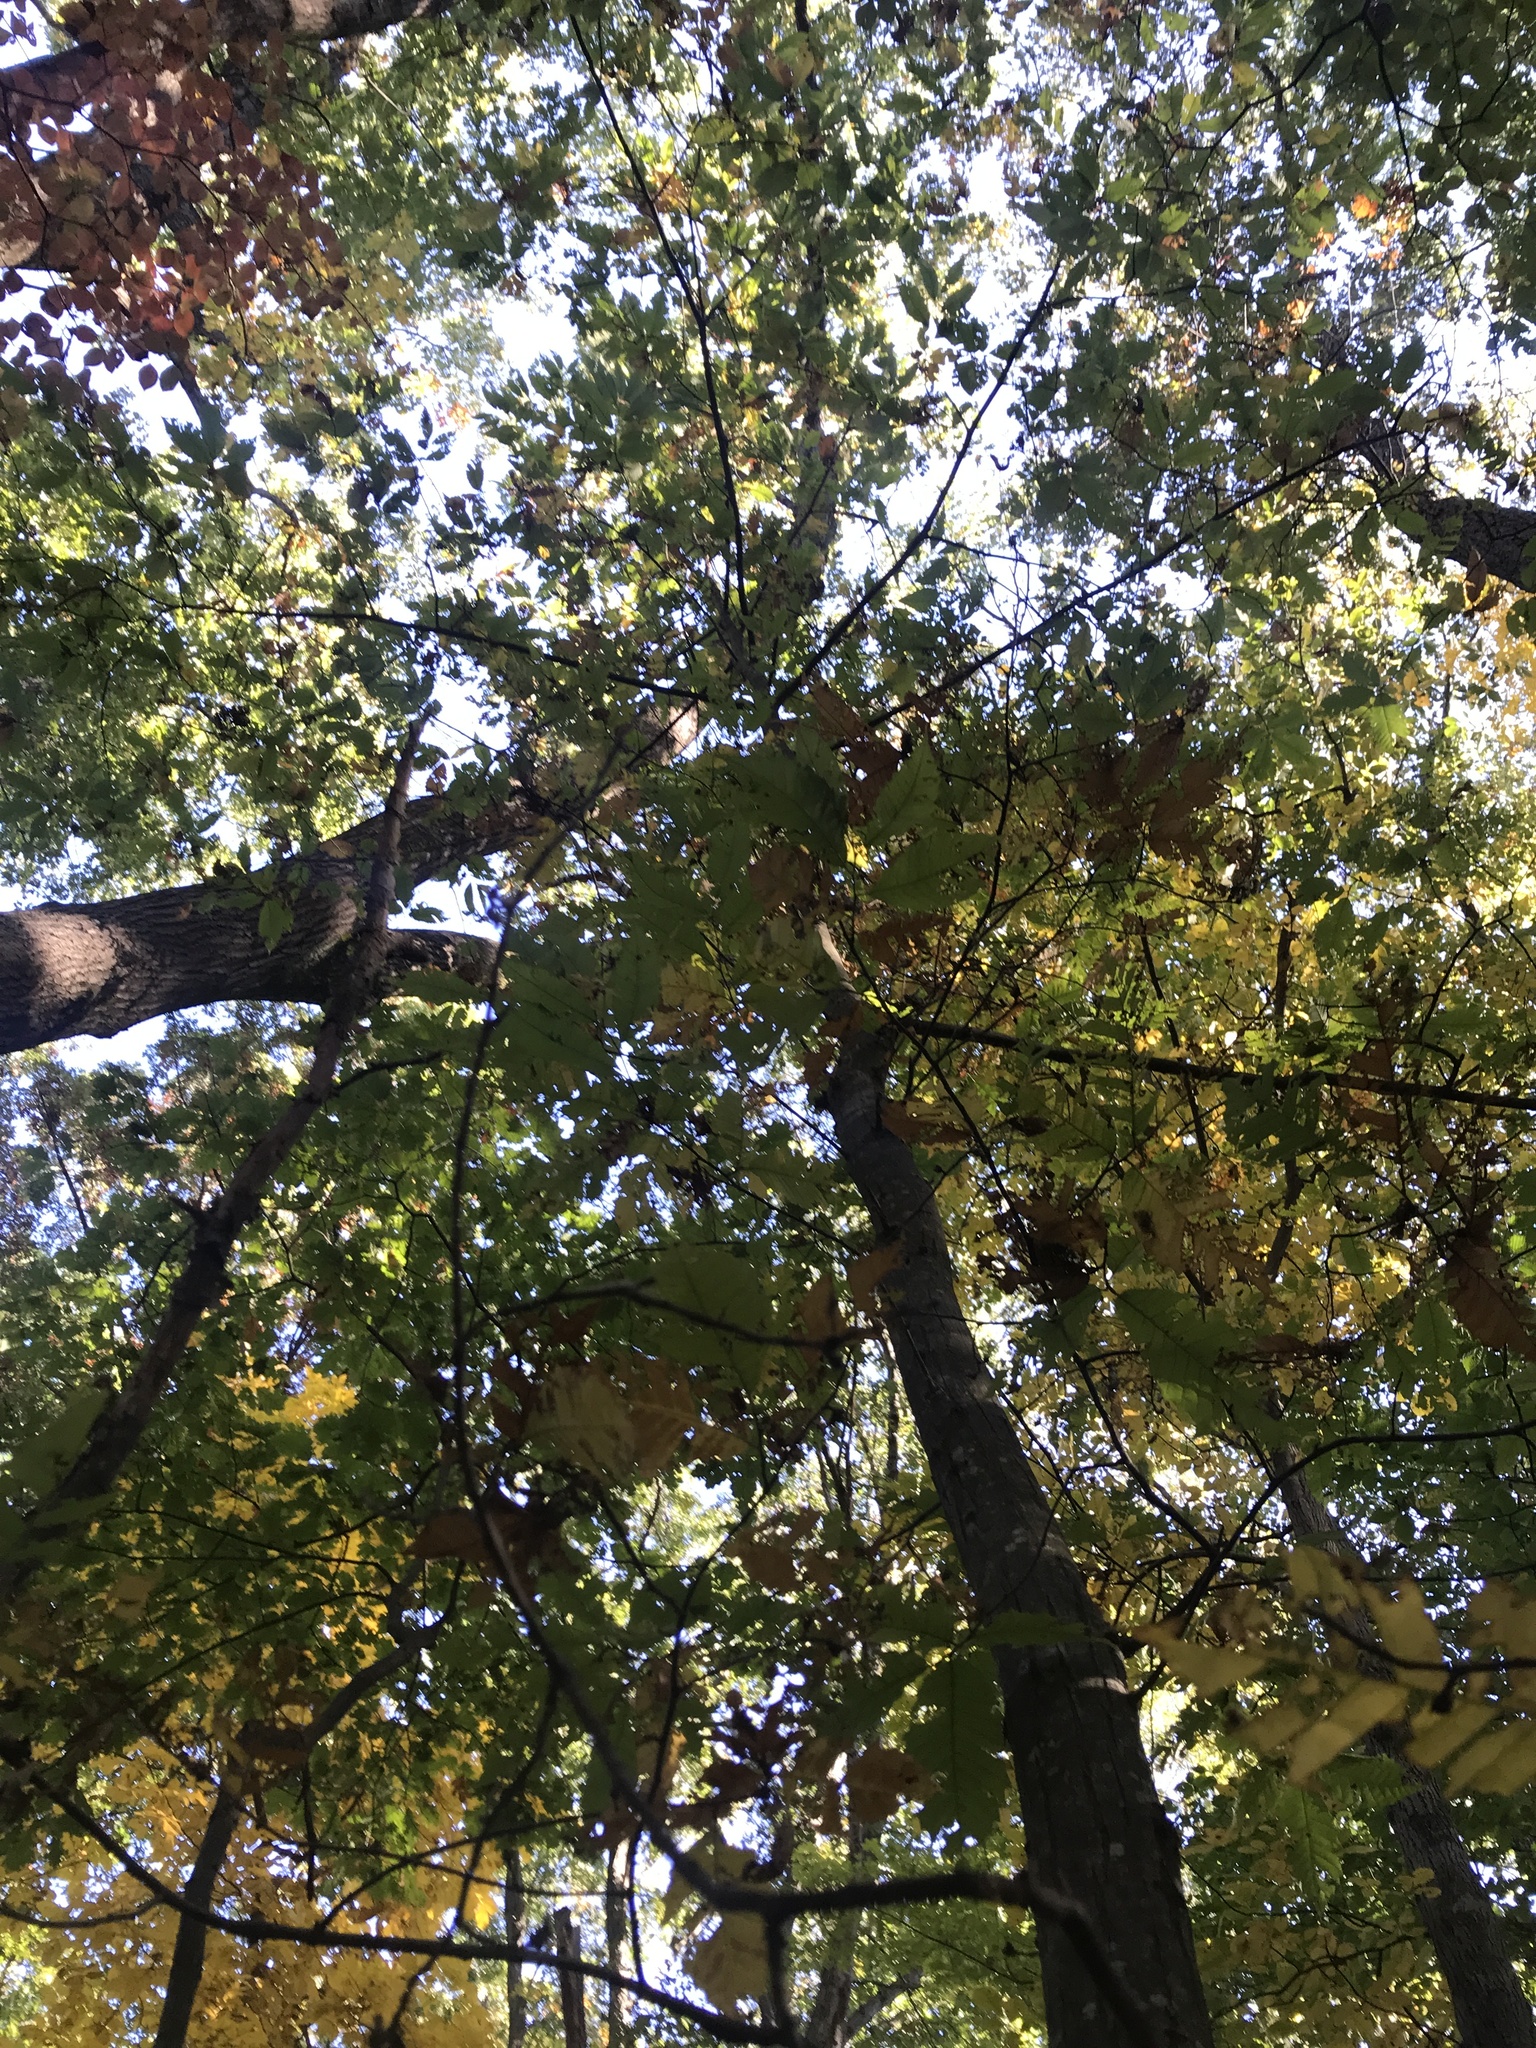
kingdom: Plantae
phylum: Tracheophyta
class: Magnoliopsida
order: Fagales
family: Fagaceae
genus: Castanea
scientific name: Castanea dentata
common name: American chestnut
